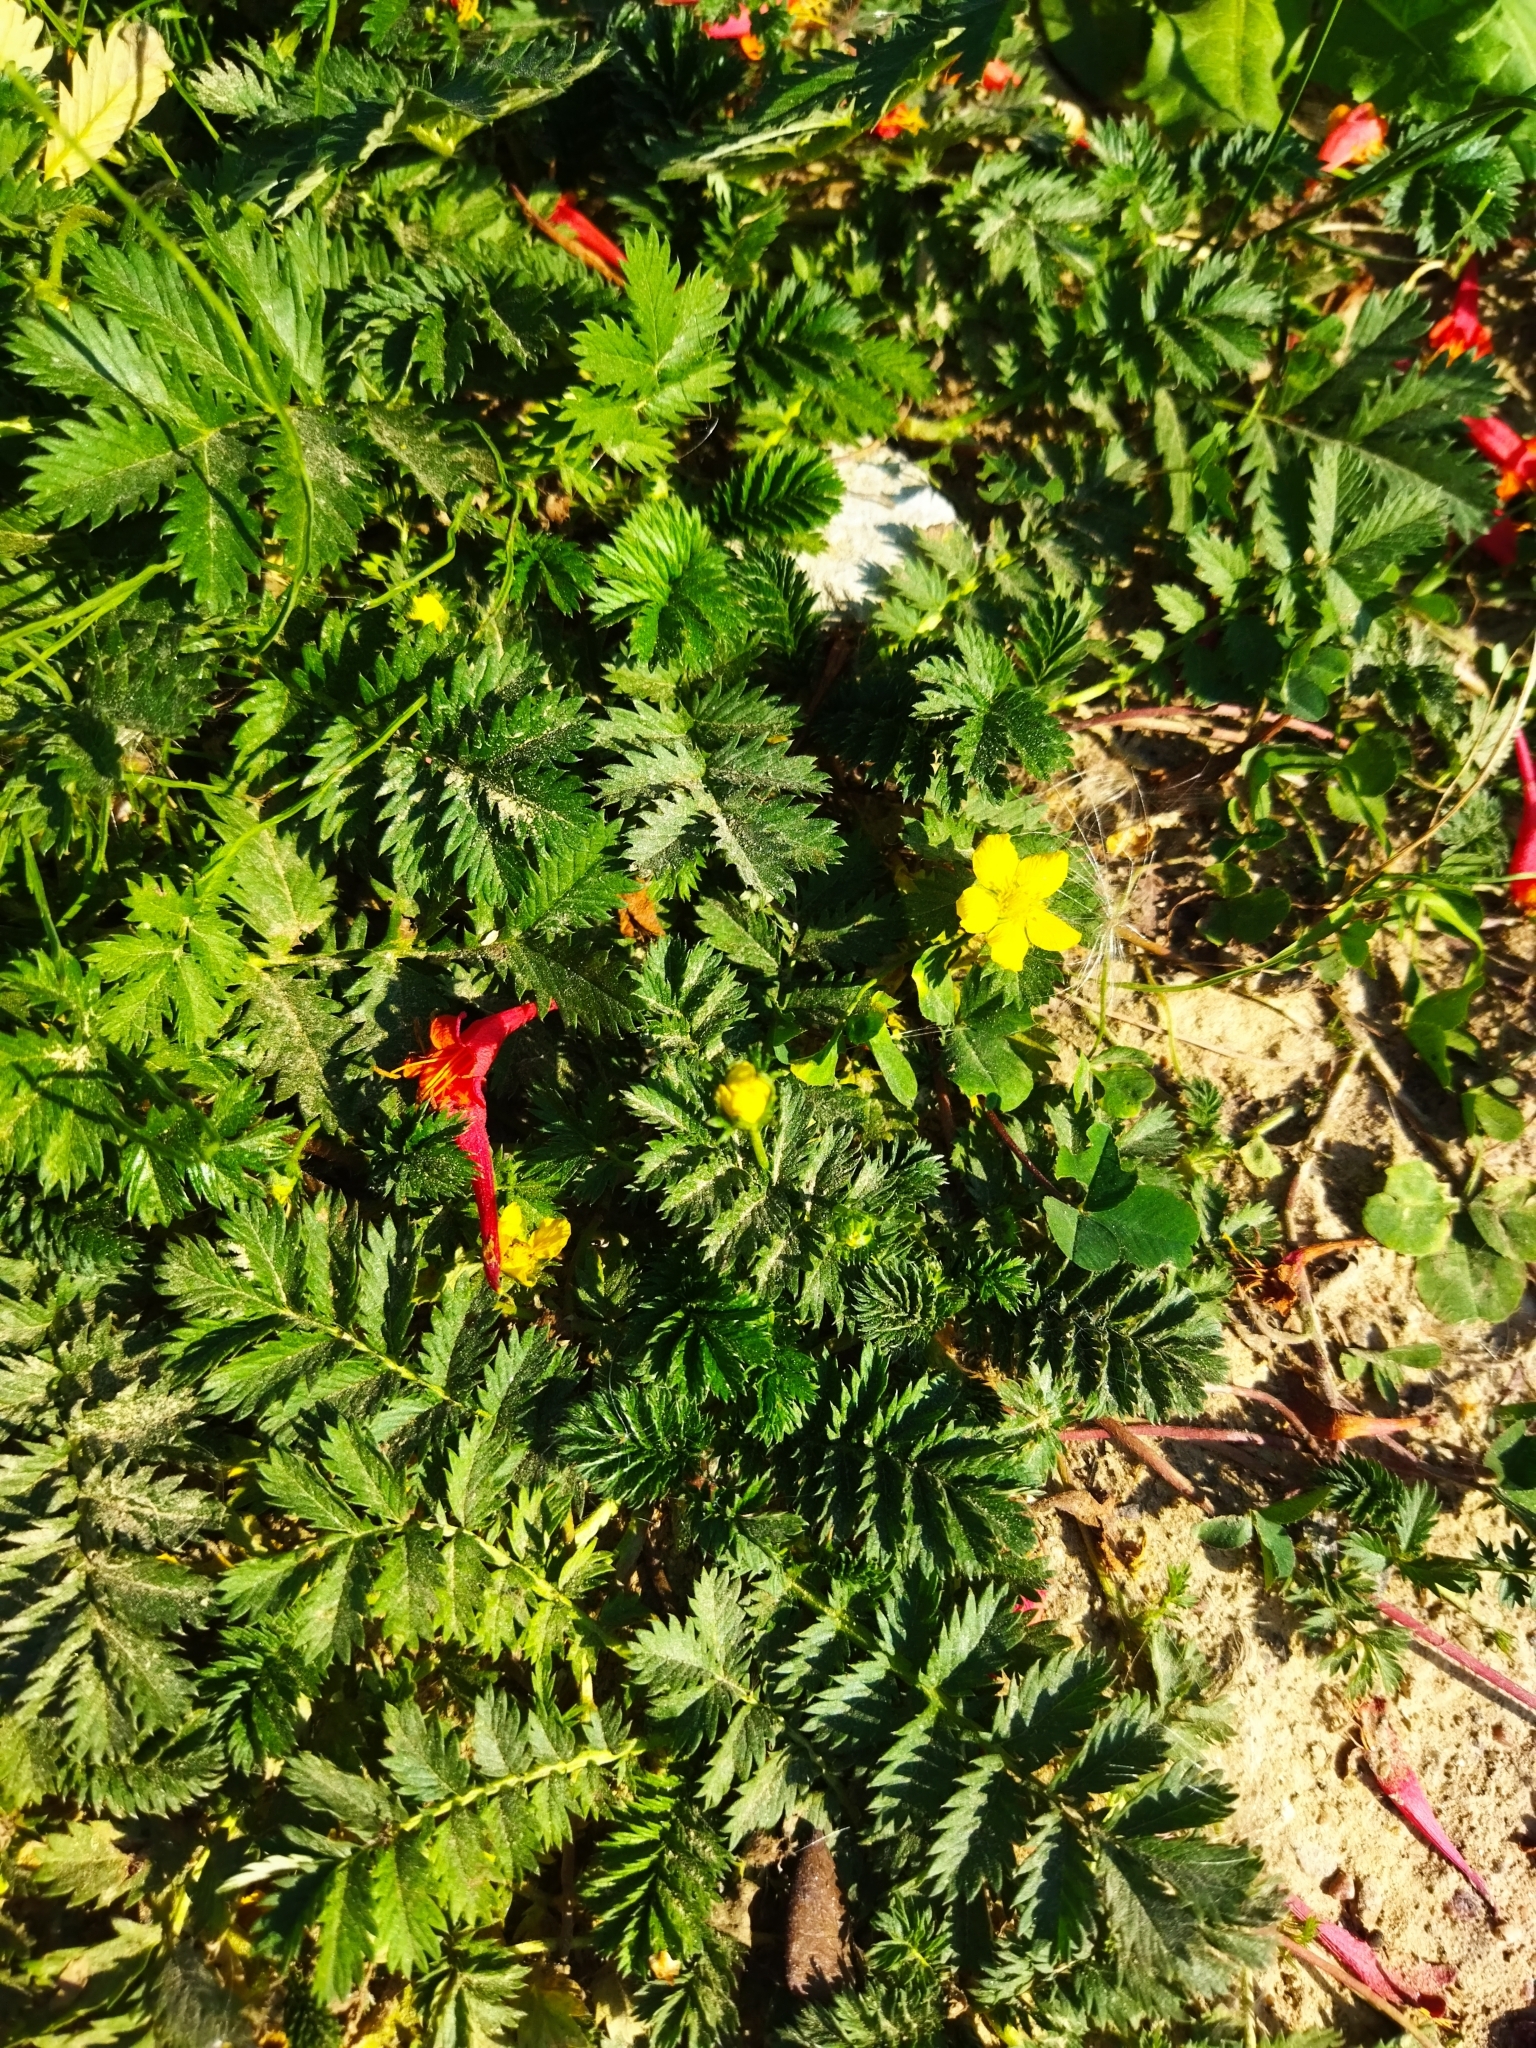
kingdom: Plantae
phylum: Tracheophyta
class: Magnoliopsida
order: Rosales
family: Rosaceae
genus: Argentina
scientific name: Argentina anserina
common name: Common silverweed
